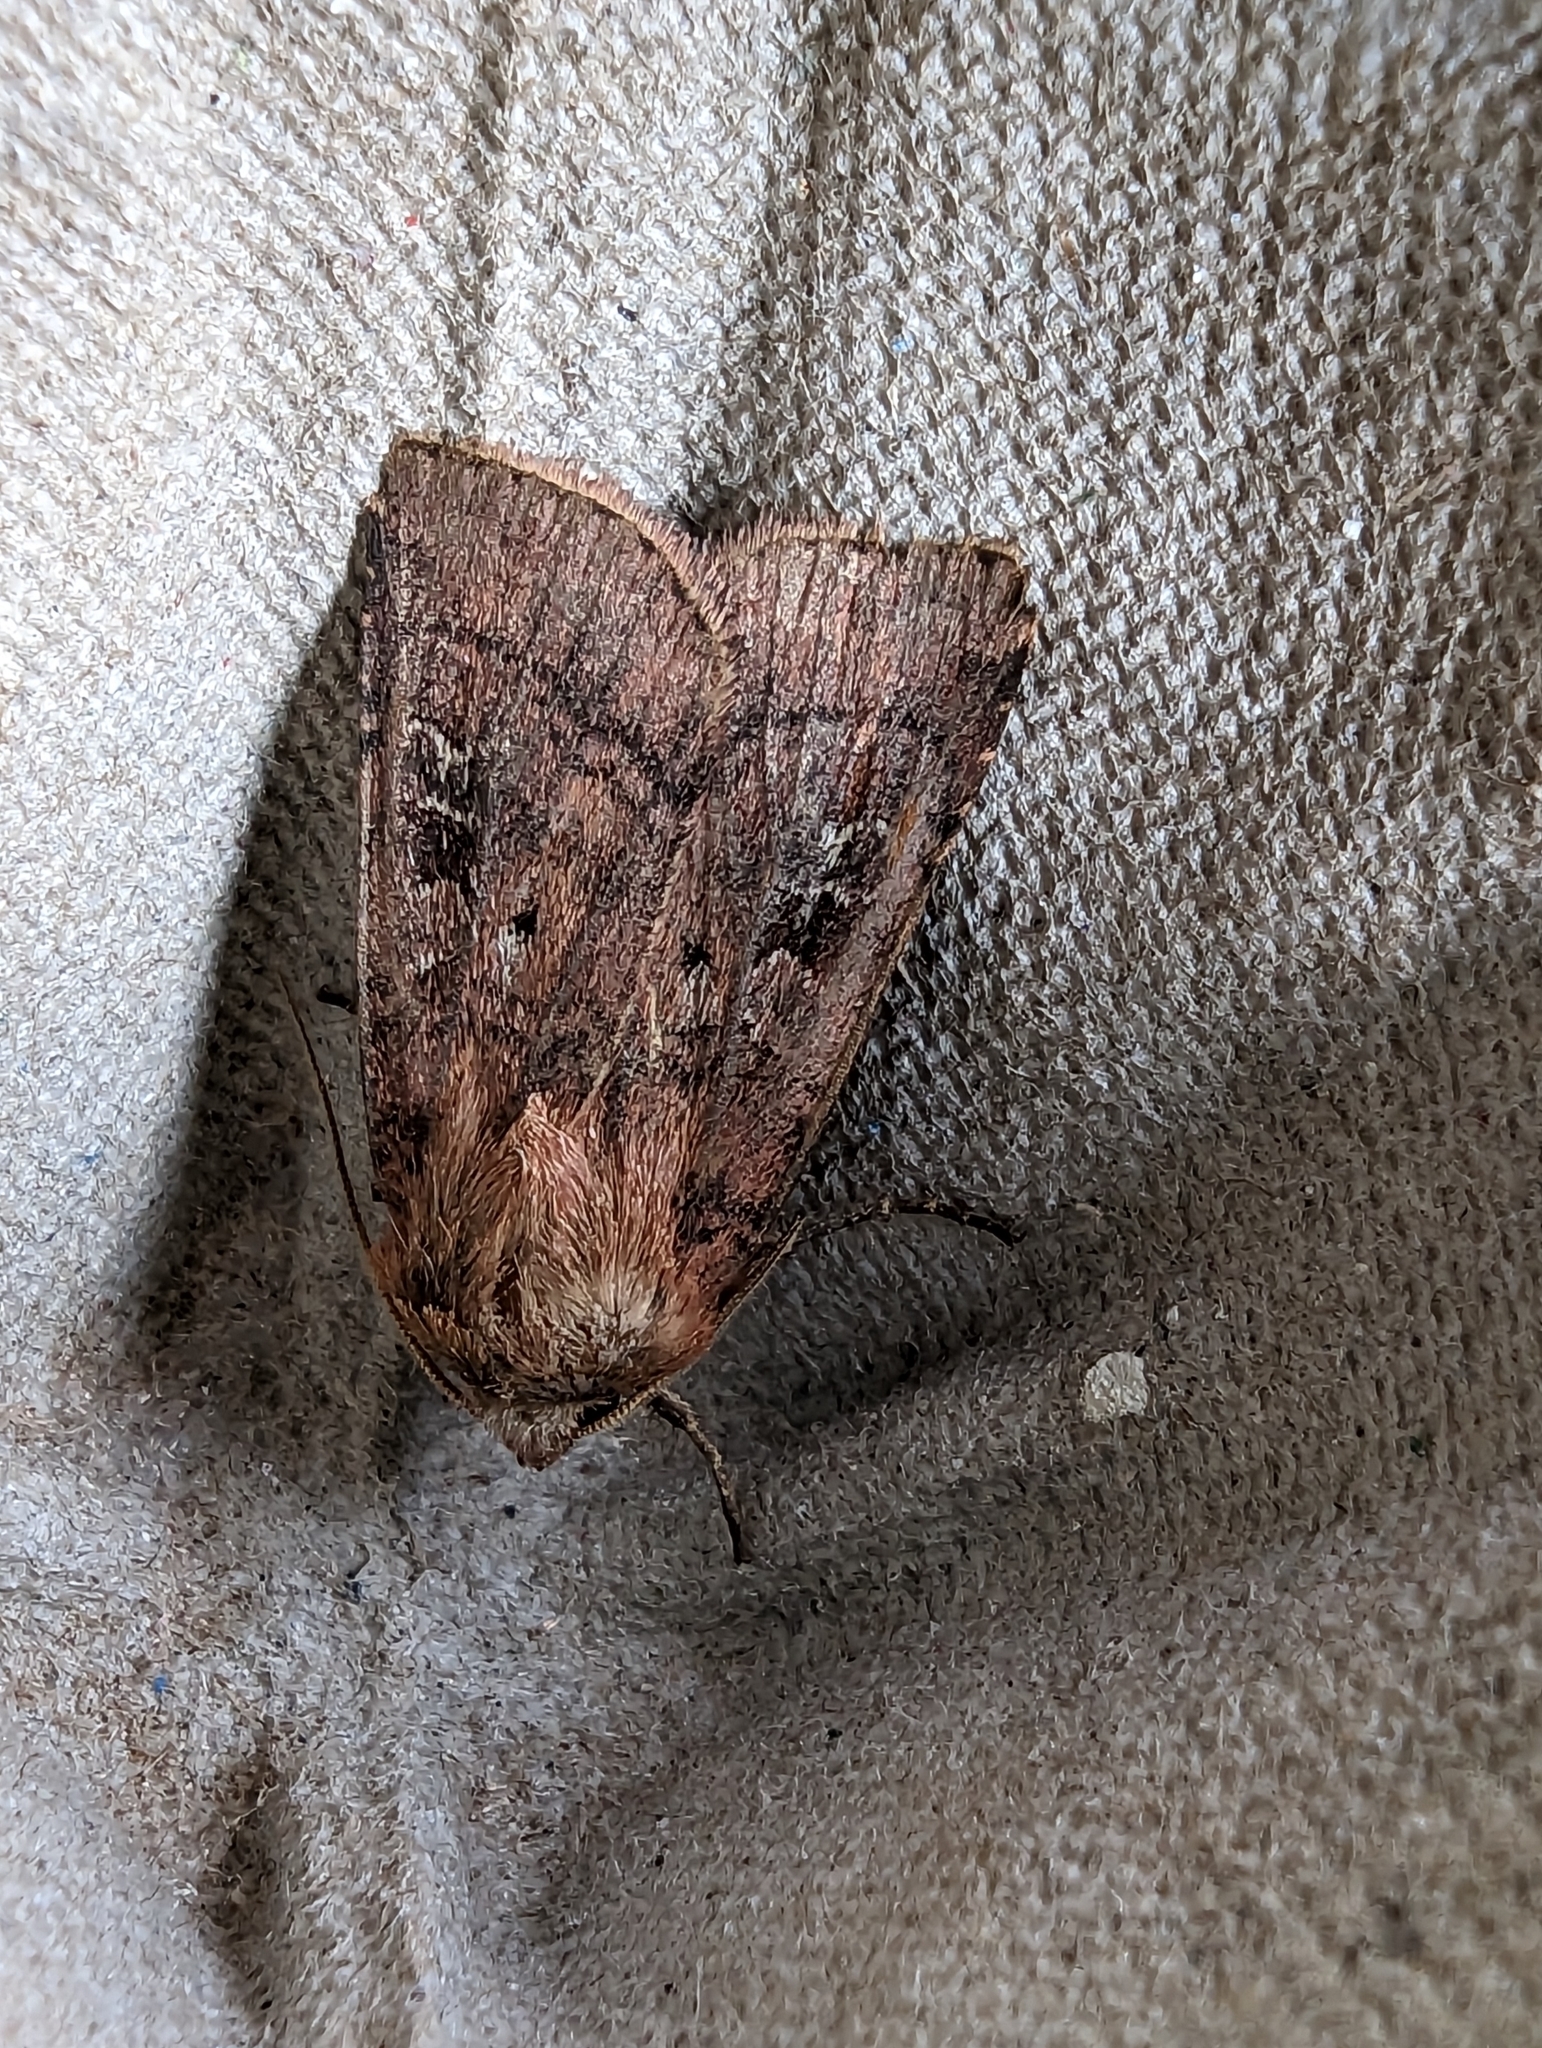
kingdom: Animalia
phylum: Arthropoda
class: Insecta
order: Lepidoptera
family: Noctuidae
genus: Diarsia
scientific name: Diarsia rubi
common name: Small square-spot
